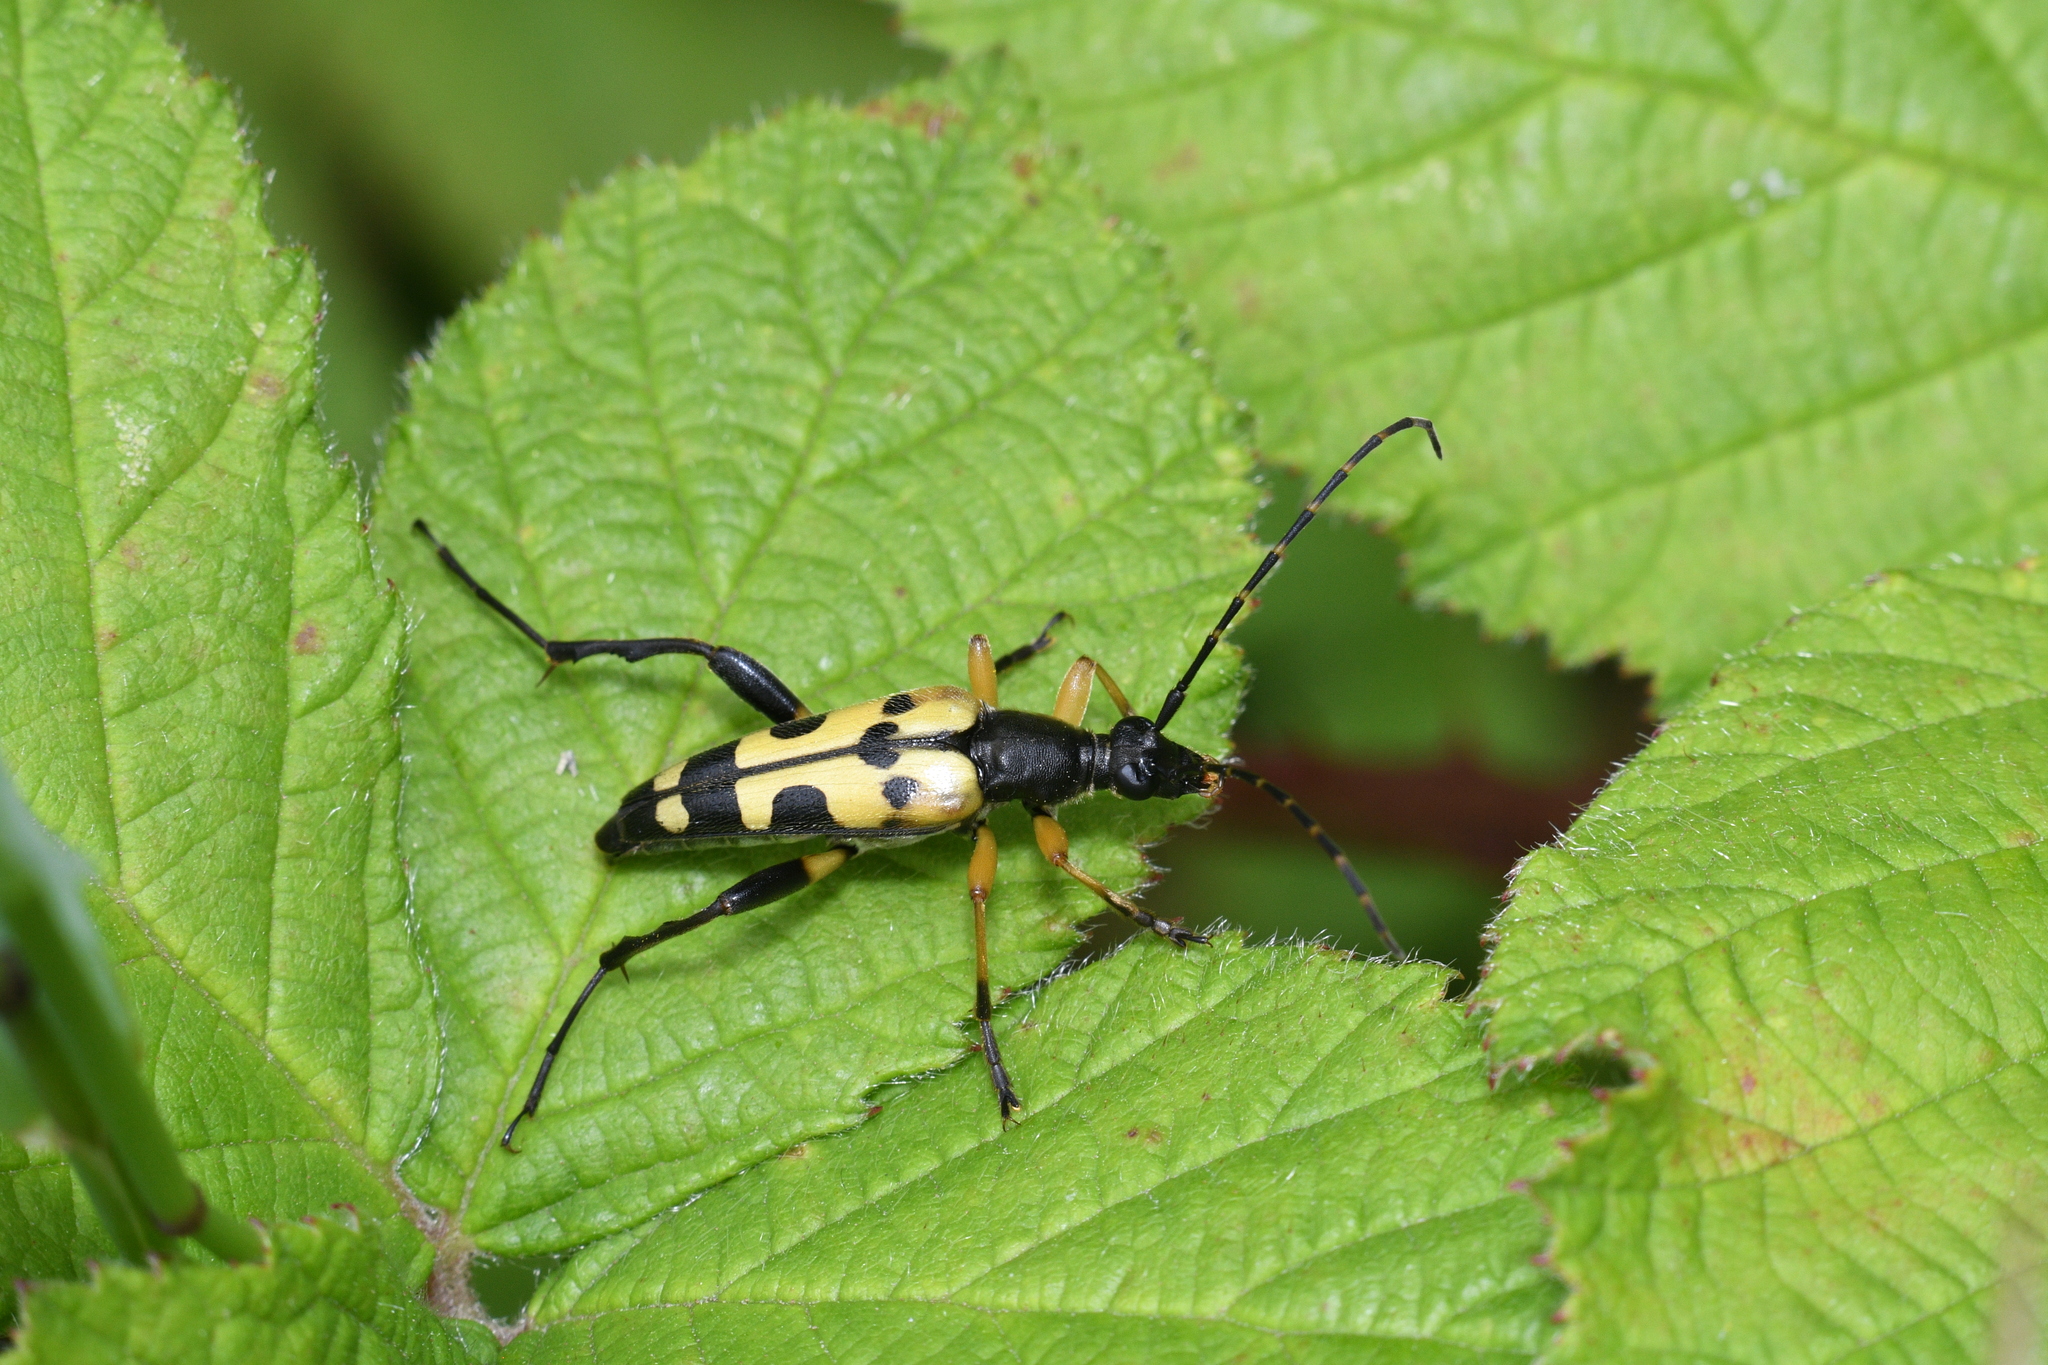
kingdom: Animalia
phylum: Arthropoda
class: Insecta
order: Coleoptera
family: Cerambycidae
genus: Rutpela
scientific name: Rutpela maculata
